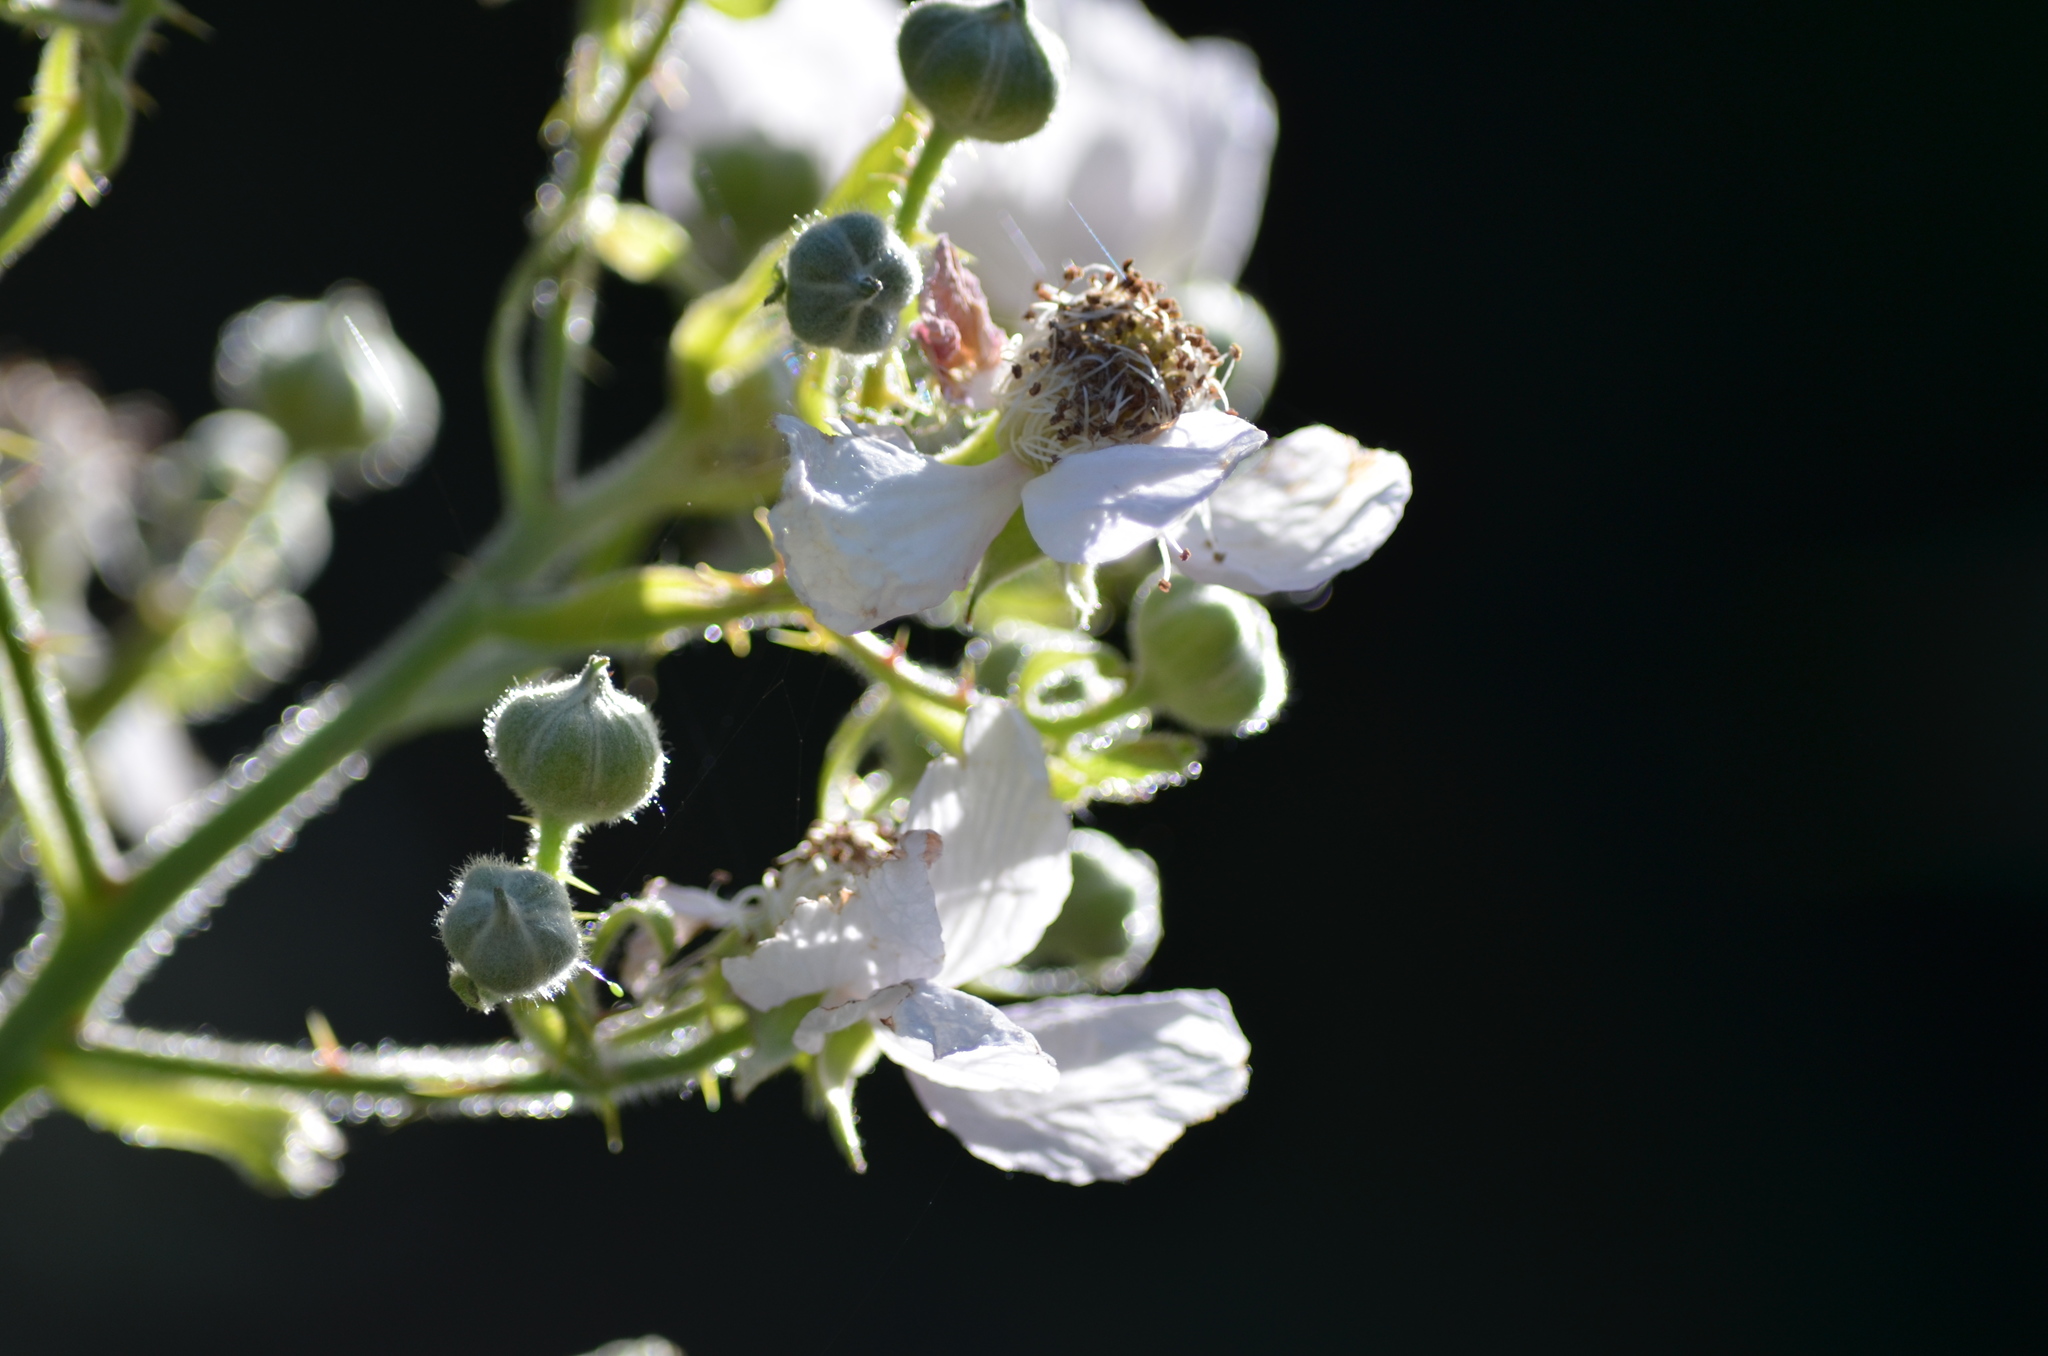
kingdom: Plantae
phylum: Tracheophyta
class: Magnoliopsida
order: Rosales
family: Rosaceae
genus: Rubus
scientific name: Rubus armeniacus
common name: Himalayan blackberry
